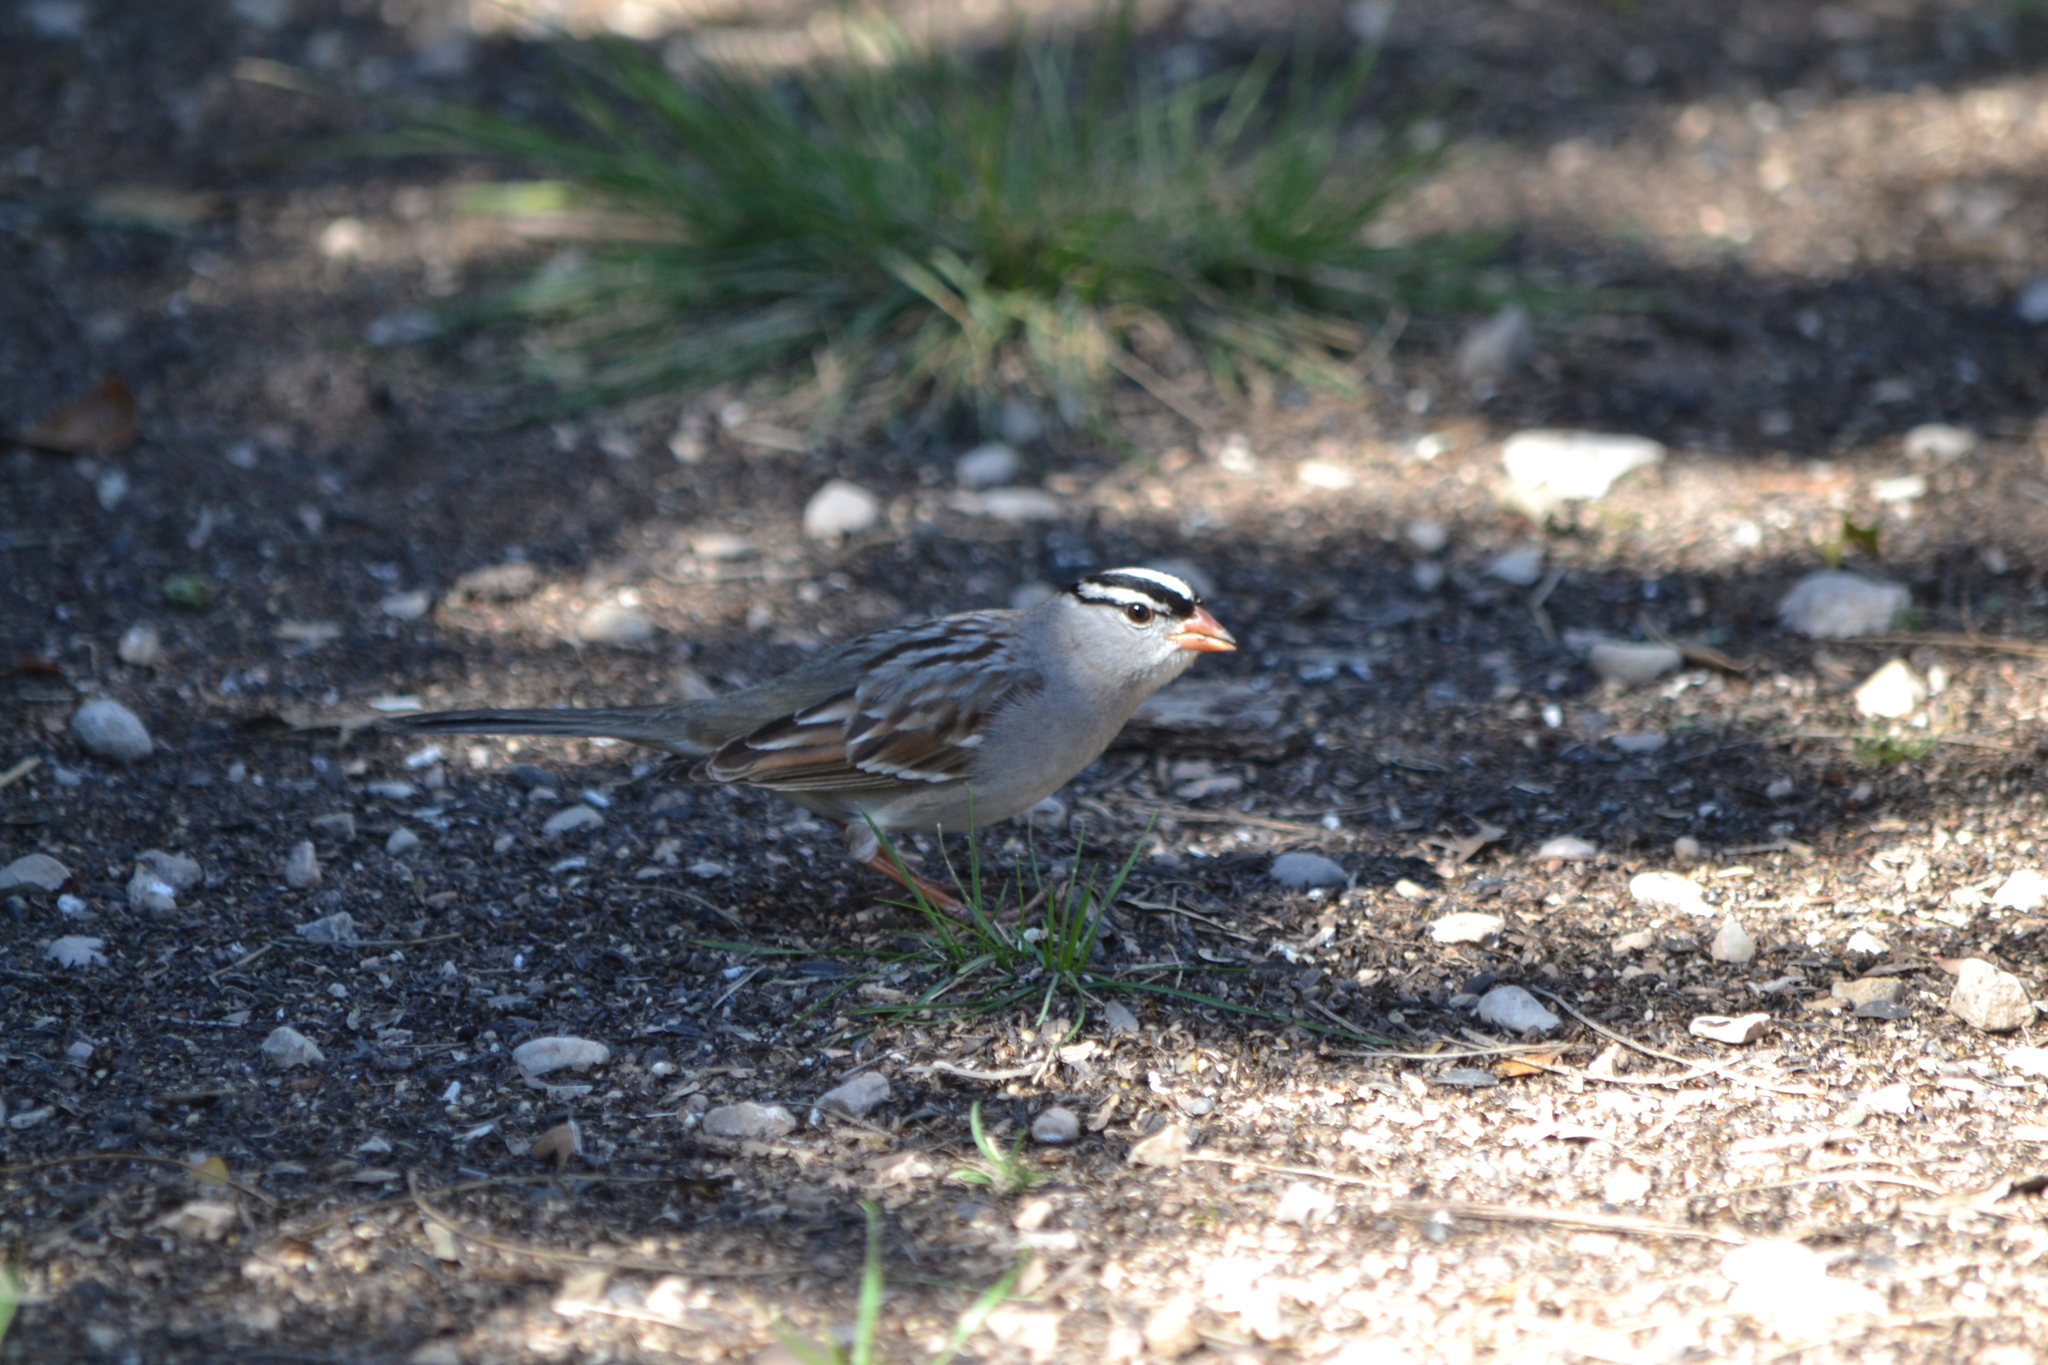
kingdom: Animalia
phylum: Chordata
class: Aves
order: Passeriformes
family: Passerellidae
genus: Zonotrichia
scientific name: Zonotrichia leucophrys
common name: White-crowned sparrow
